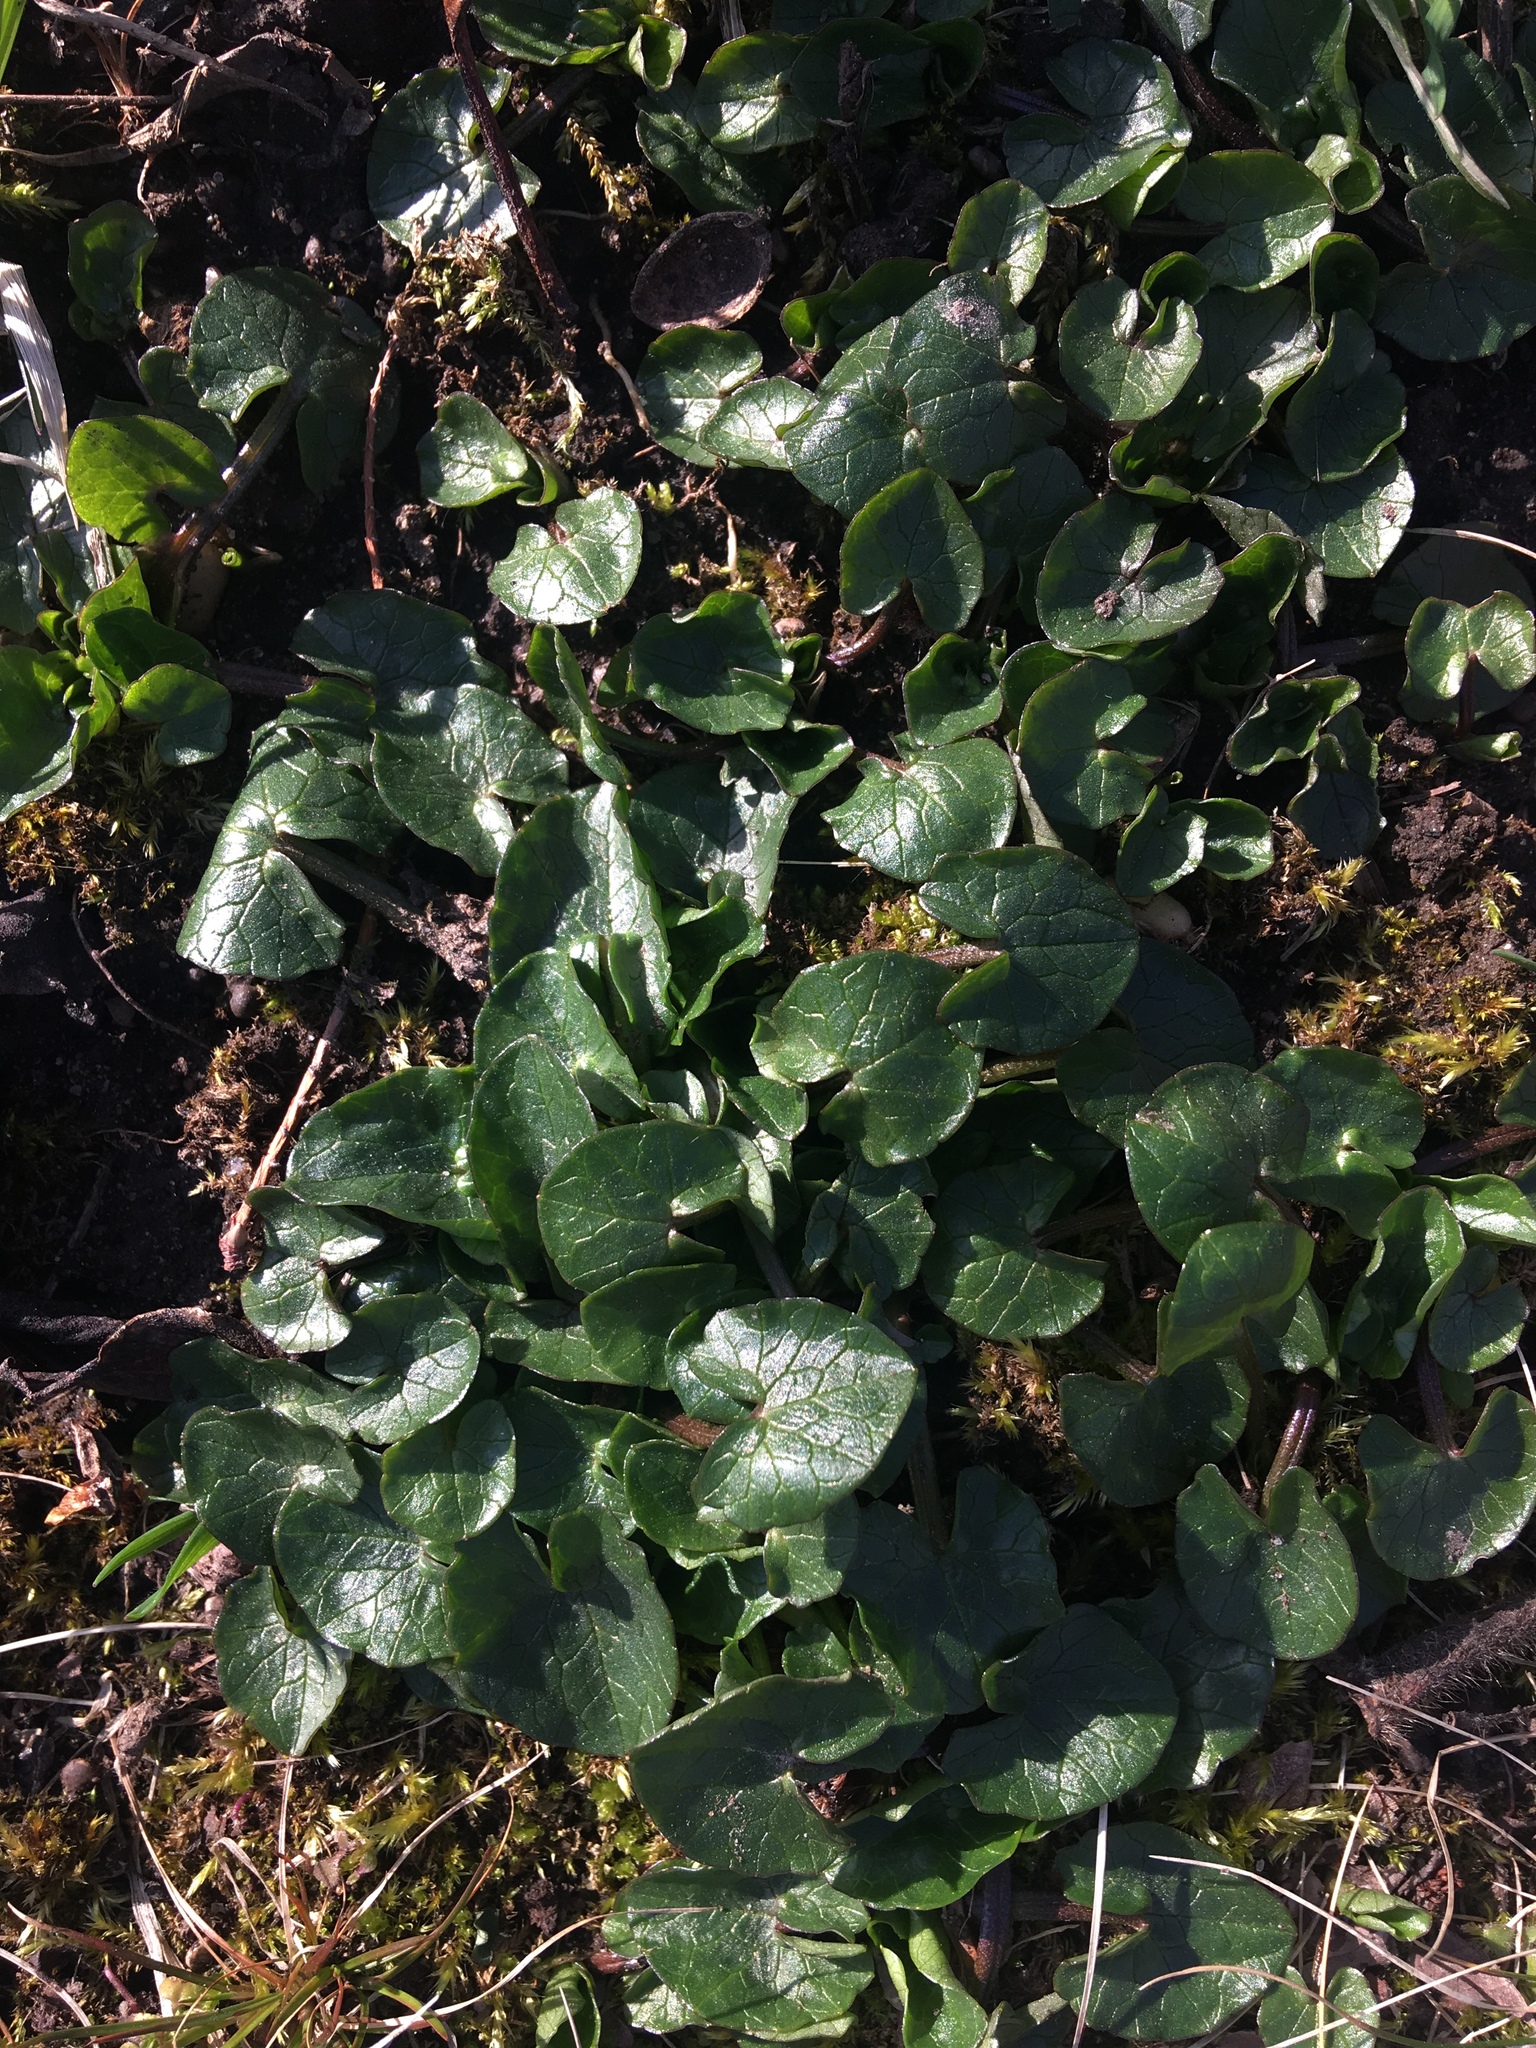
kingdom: Plantae
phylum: Tracheophyta
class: Magnoliopsida
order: Ranunculales
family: Ranunculaceae
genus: Ficaria
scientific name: Ficaria verna
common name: Lesser celandine
